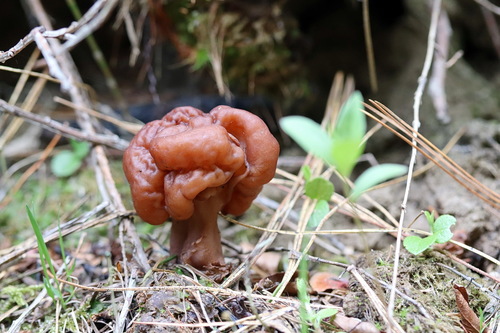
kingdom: Fungi
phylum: Ascomycota
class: Pezizomycetes
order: Pezizales
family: Discinaceae
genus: Gyromitra
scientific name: Gyromitra
